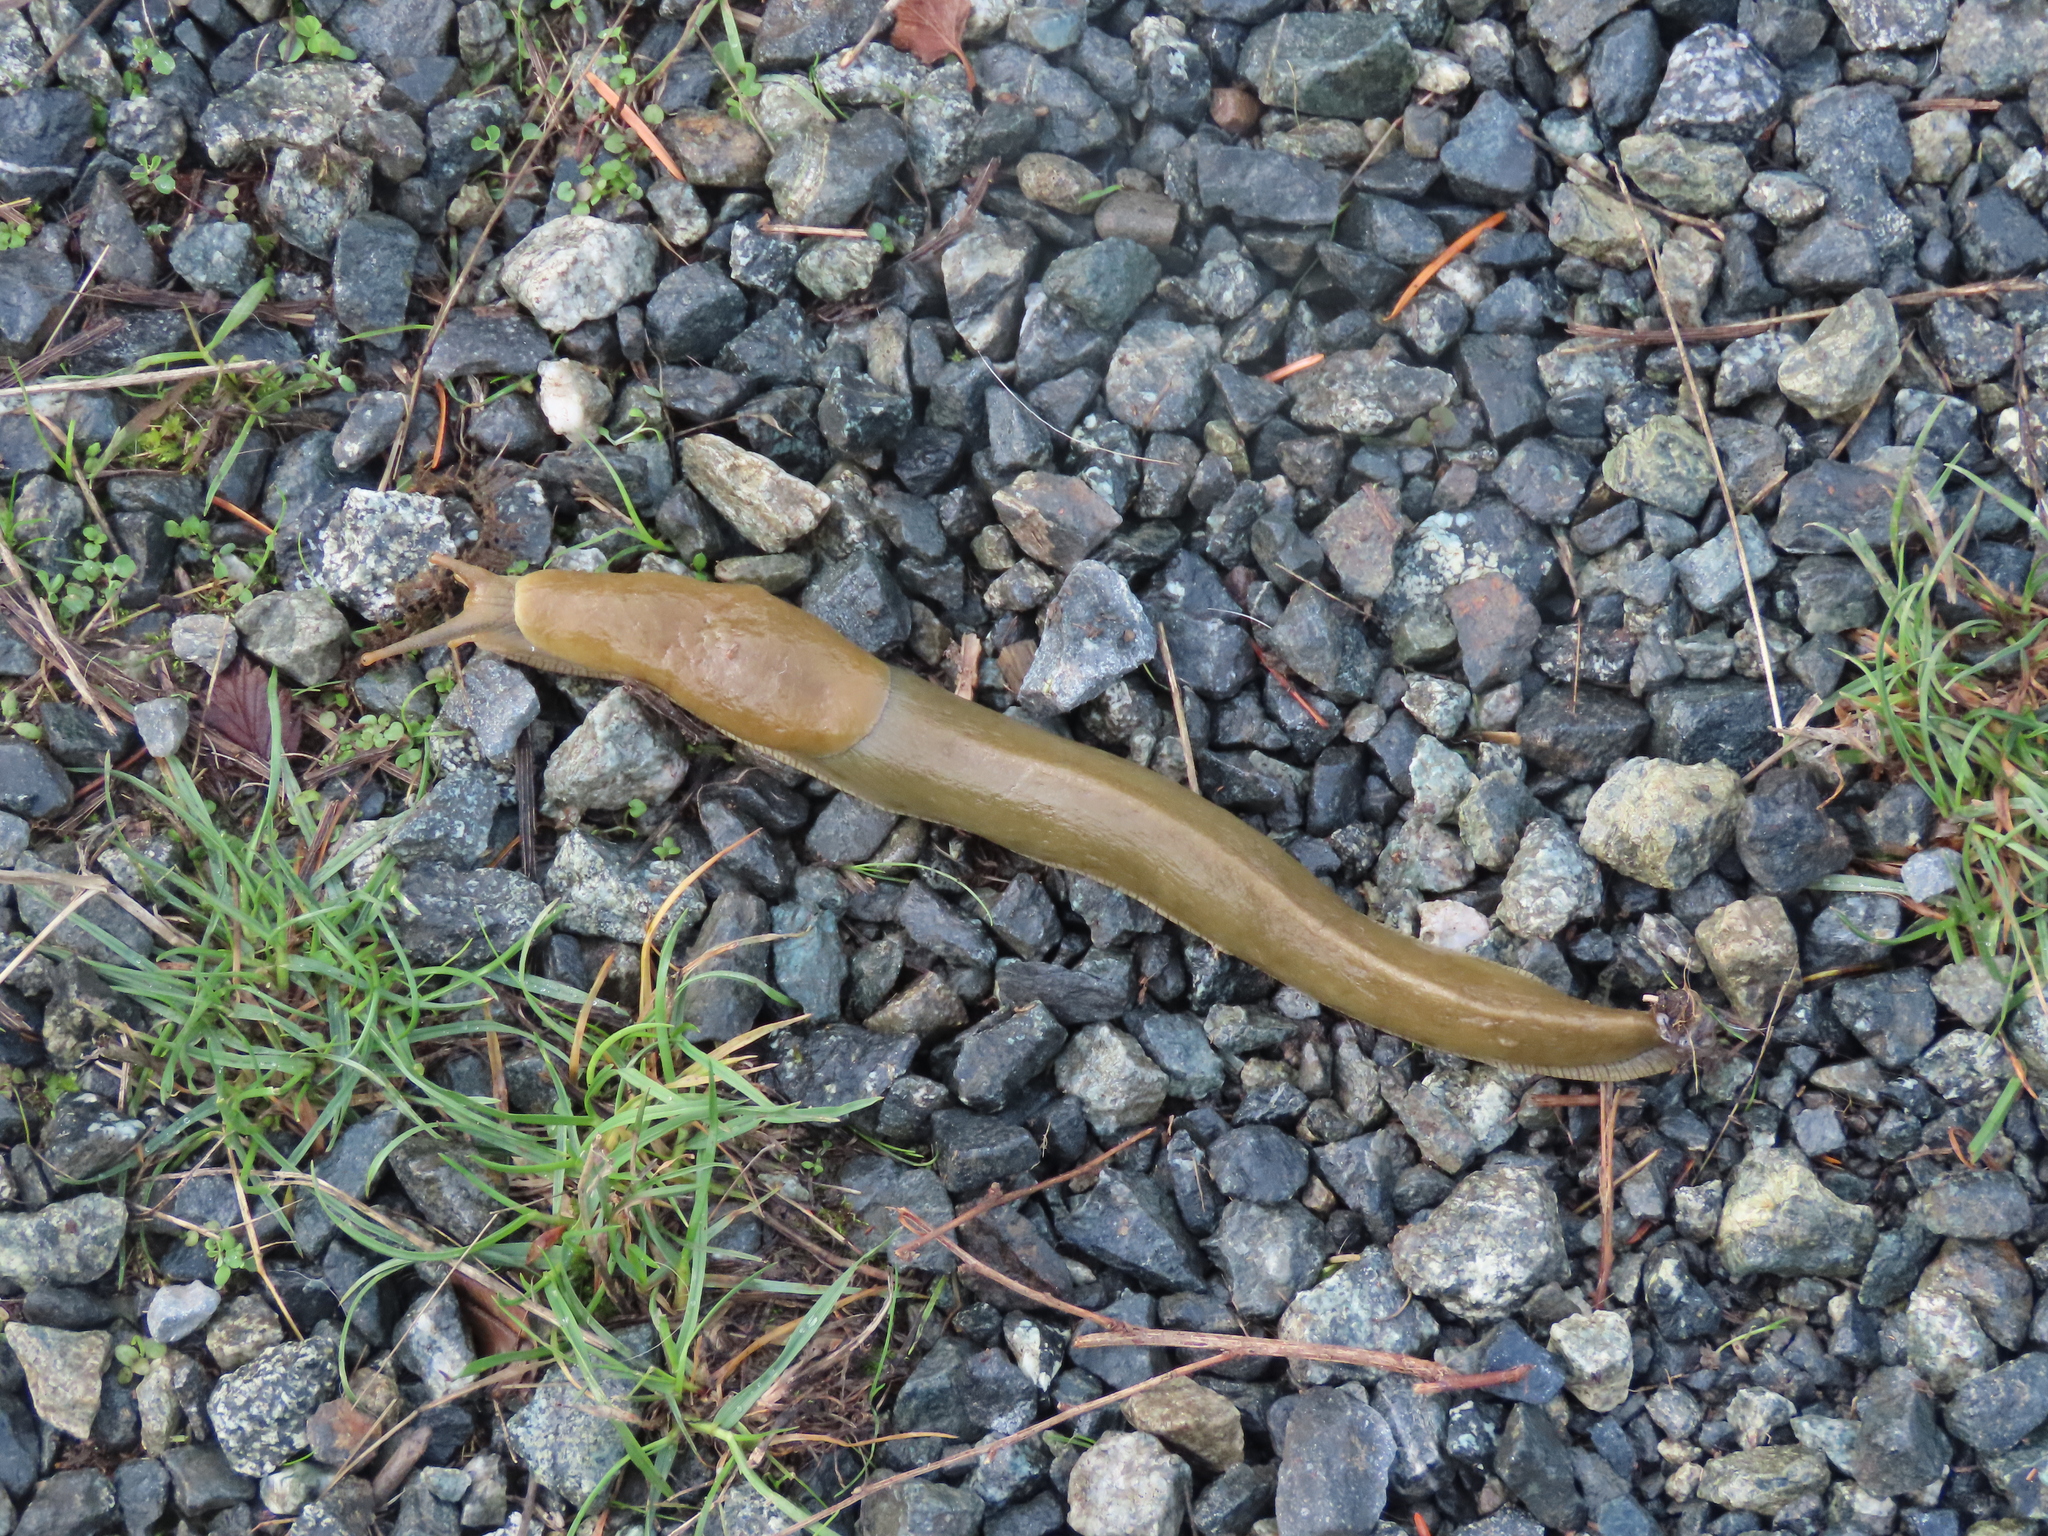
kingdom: Animalia
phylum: Mollusca
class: Gastropoda
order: Stylommatophora
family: Ariolimacidae
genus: Ariolimax
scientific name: Ariolimax columbianus
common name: Pacific banana slug
